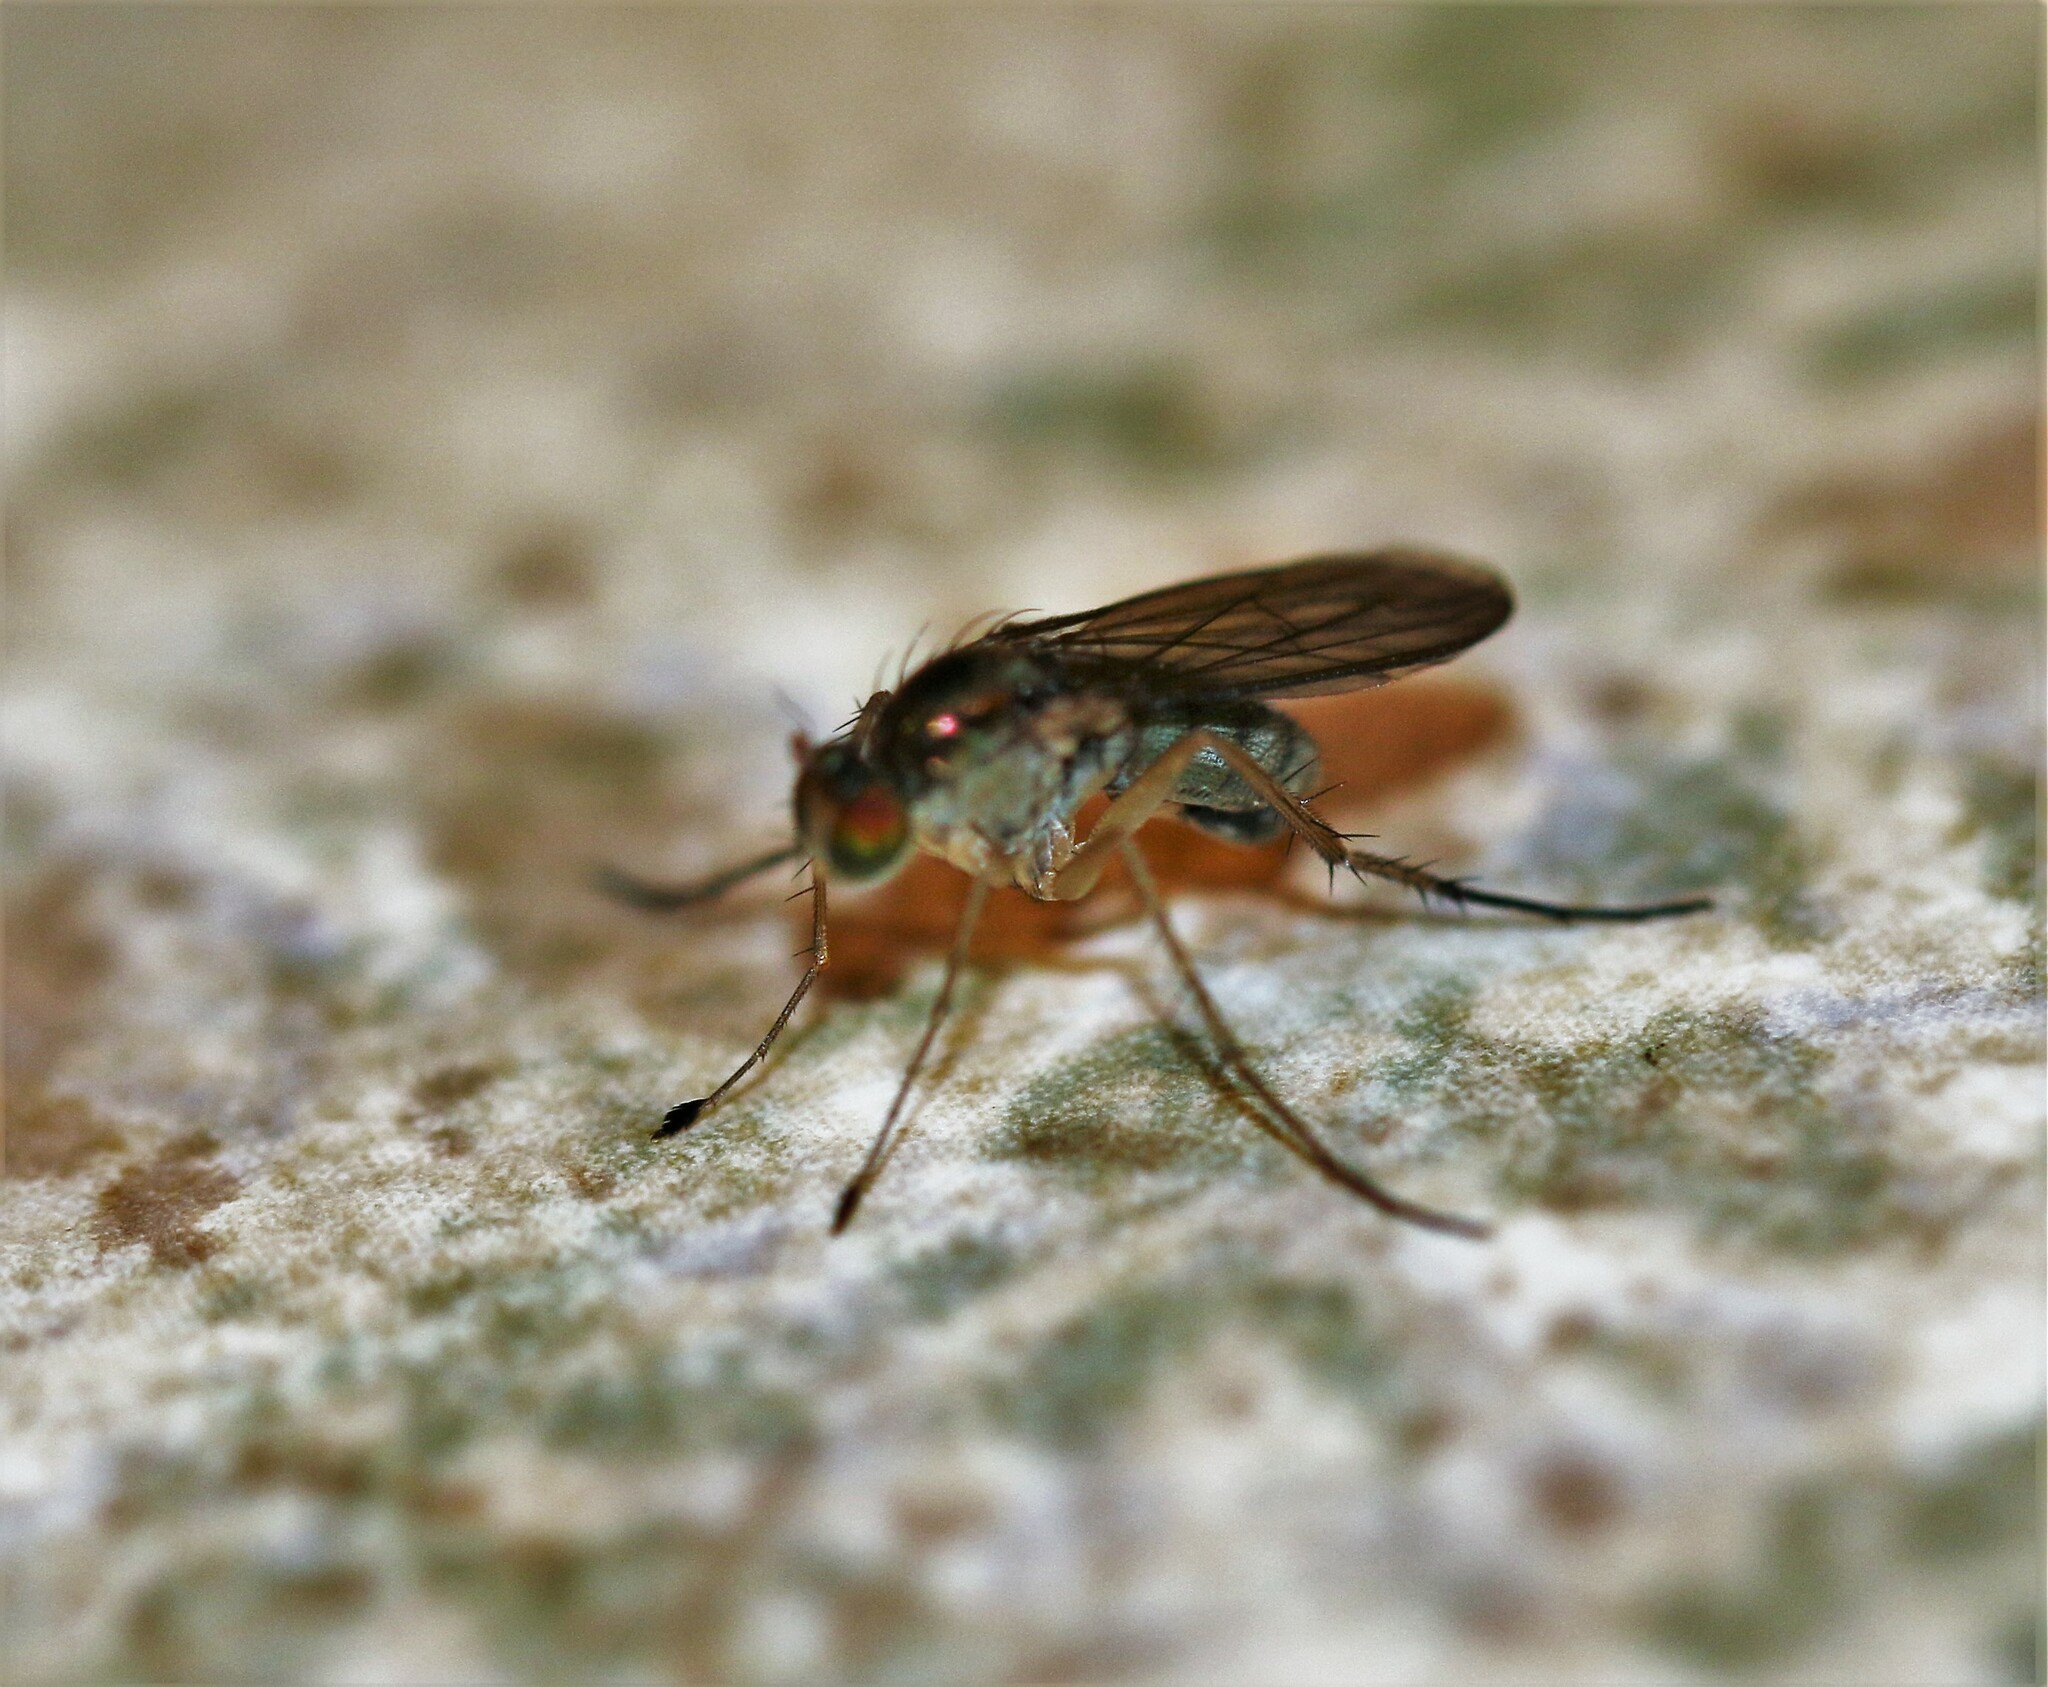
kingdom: Animalia
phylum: Arthropoda
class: Insecta
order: Diptera
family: Dolichopodidae
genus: Dolichopus
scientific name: Dolichopus cuprinus
